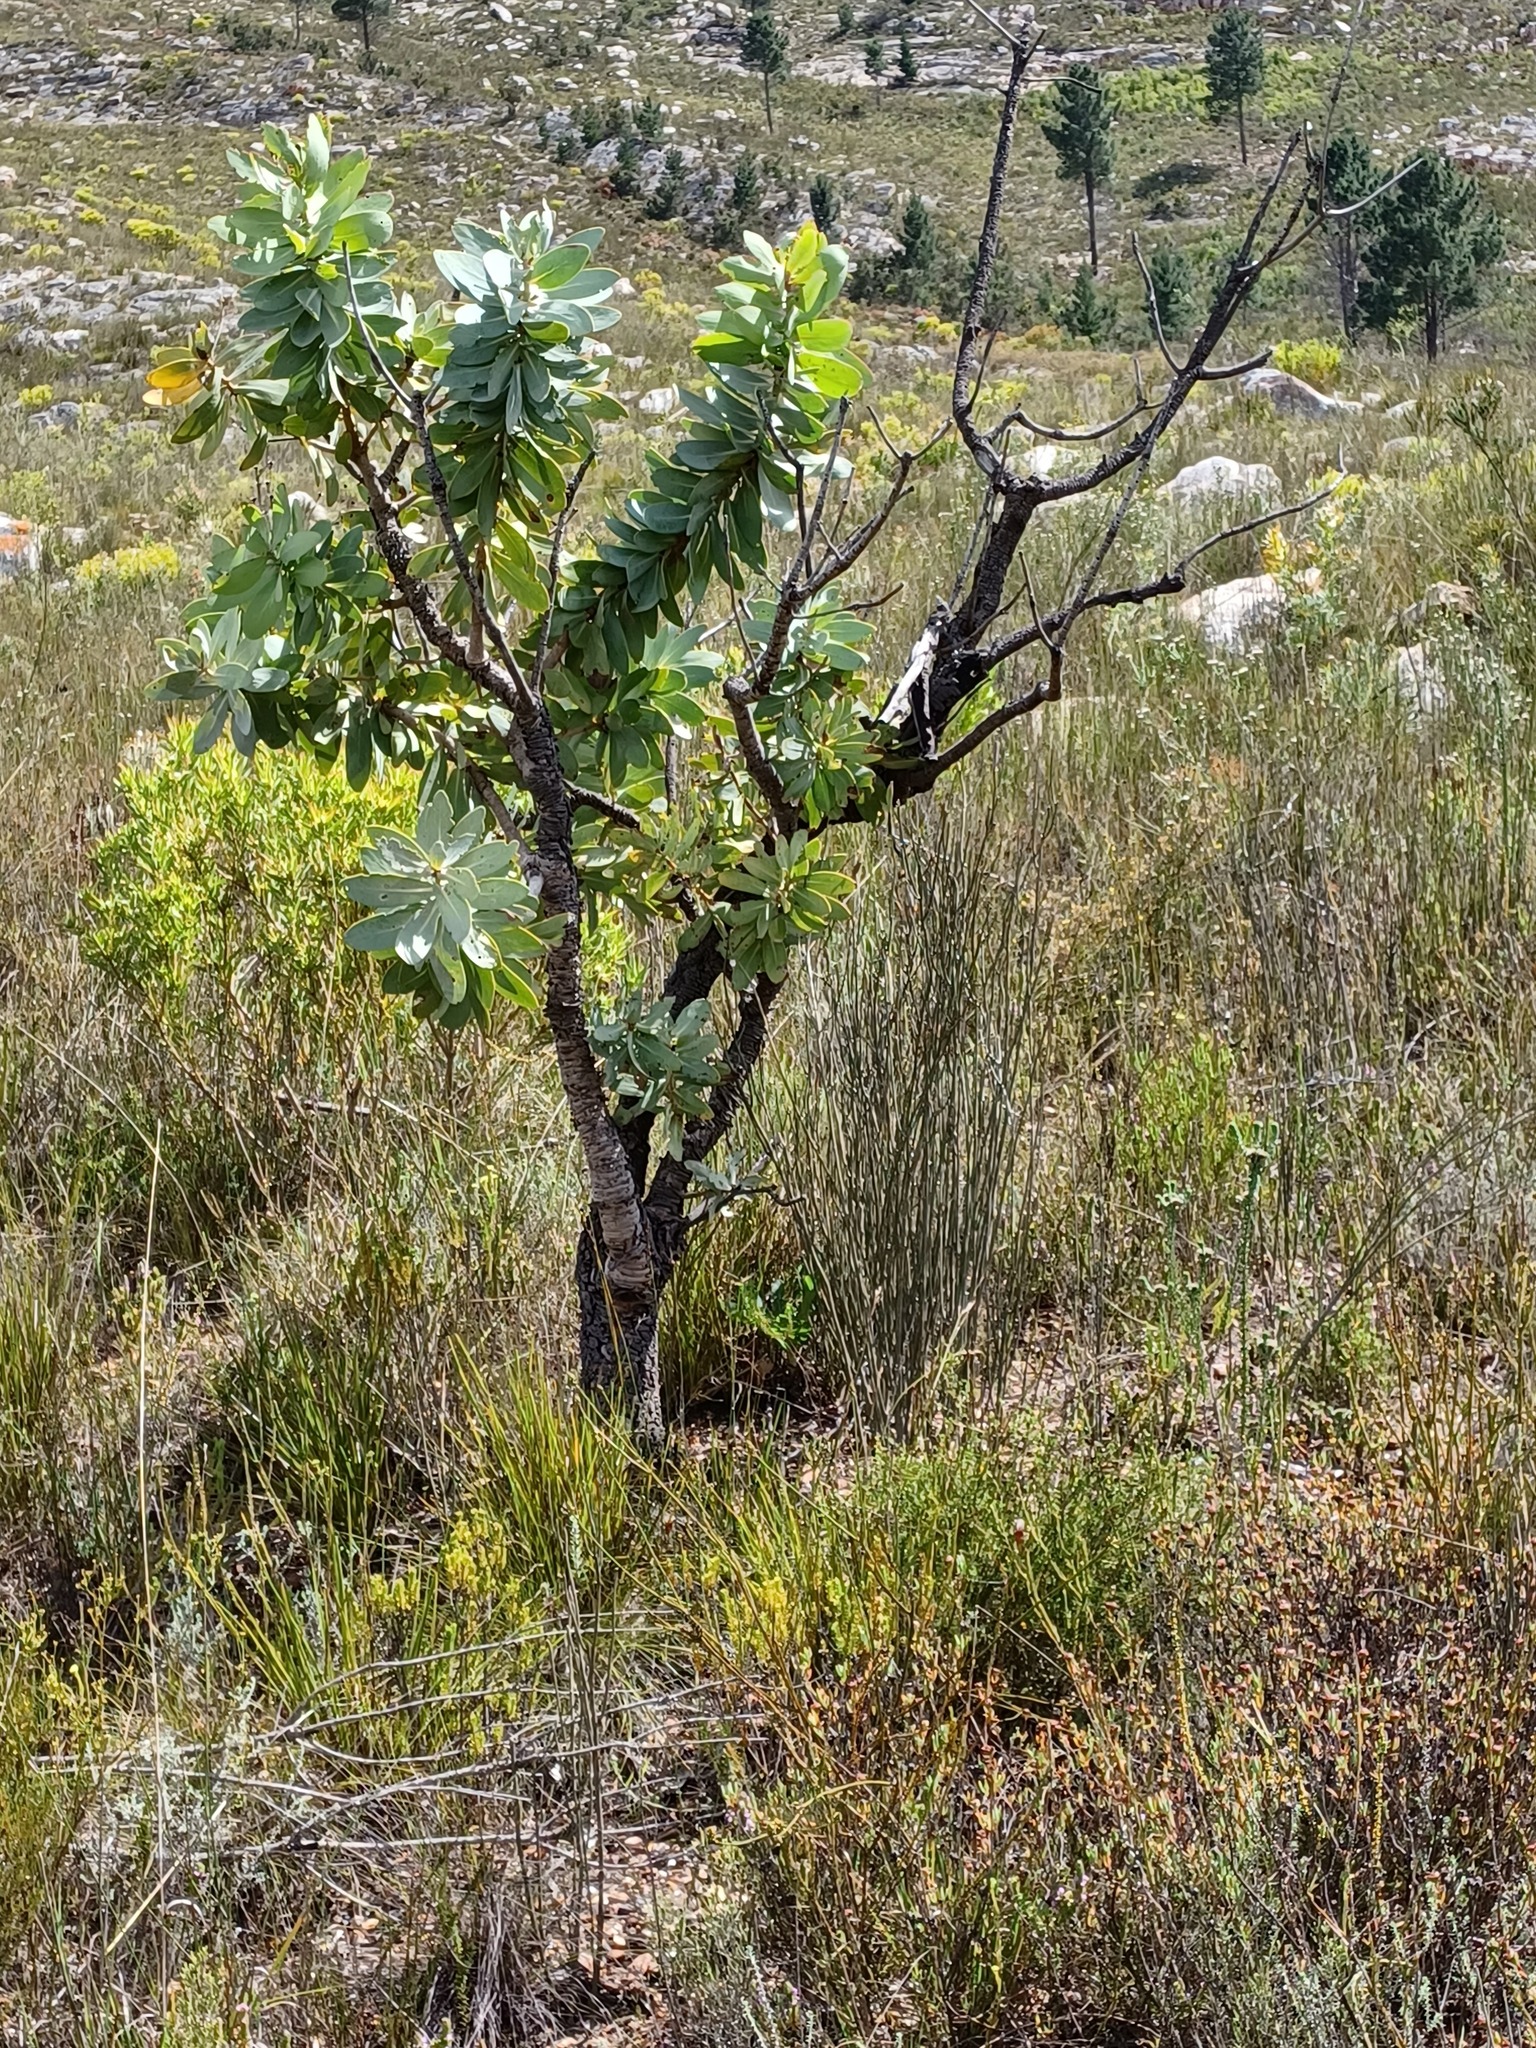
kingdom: Plantae
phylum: Tracheophyta
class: Magnoliopsida
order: Proteales
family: Proteaceae
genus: Protea
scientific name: Protea nitida
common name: Tree protea
